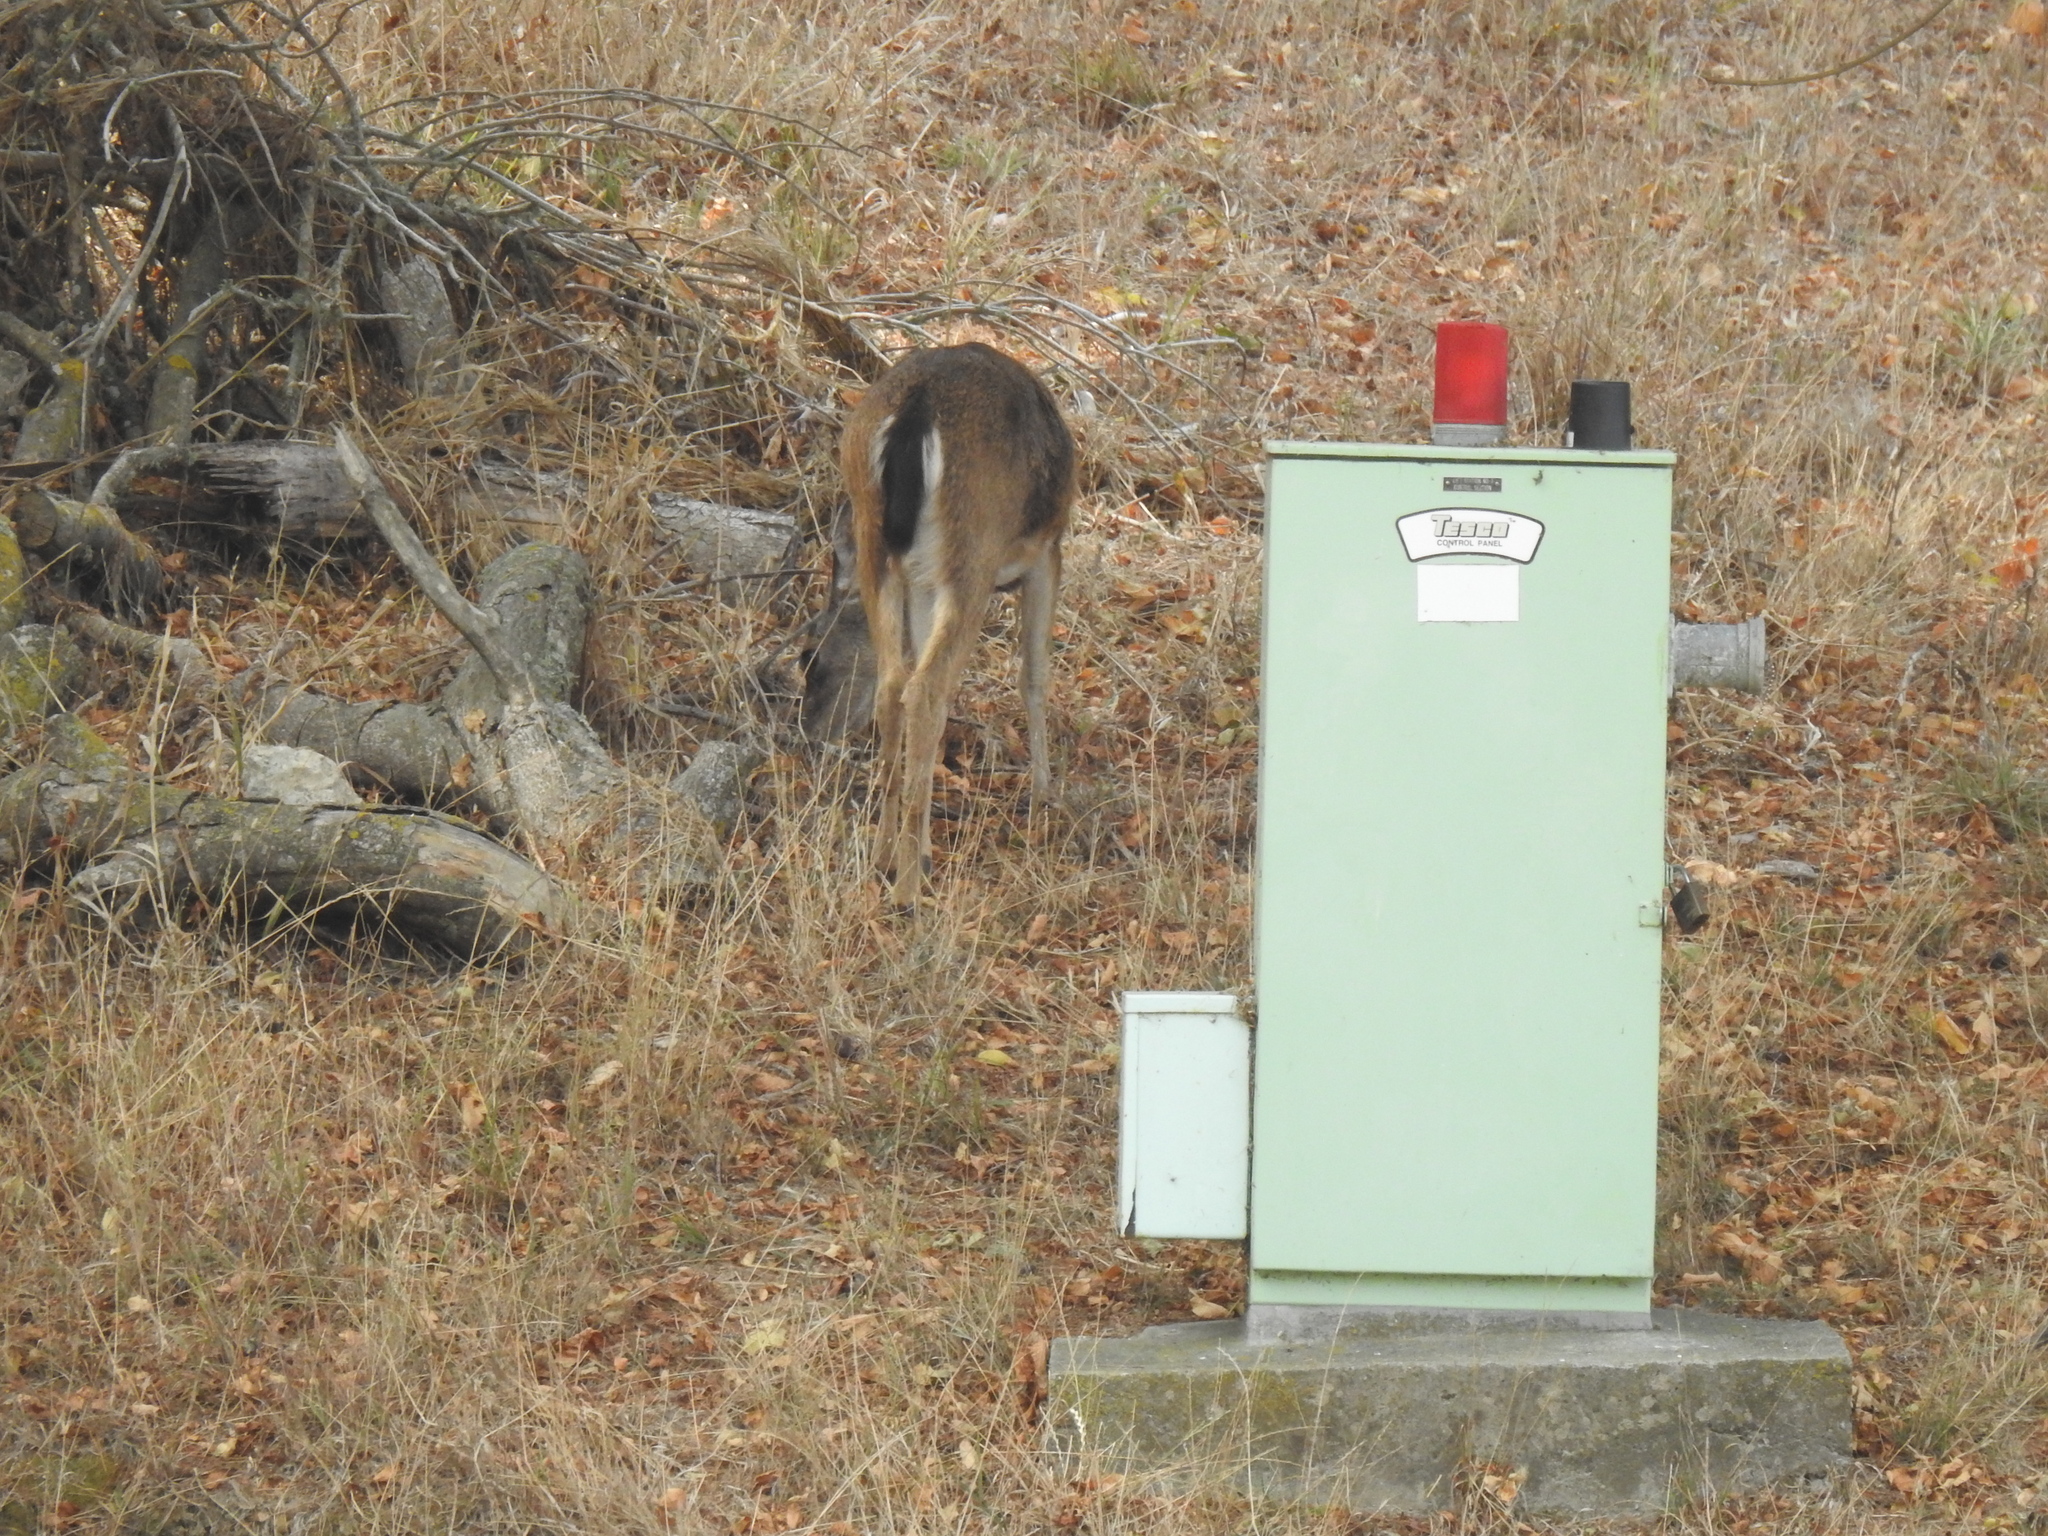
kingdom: Animalia
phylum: Chordata
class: Mammalia
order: Artiodactyla
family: Cervidae
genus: Odocoileus
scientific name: Odocoileus hemionus
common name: Mule deer
